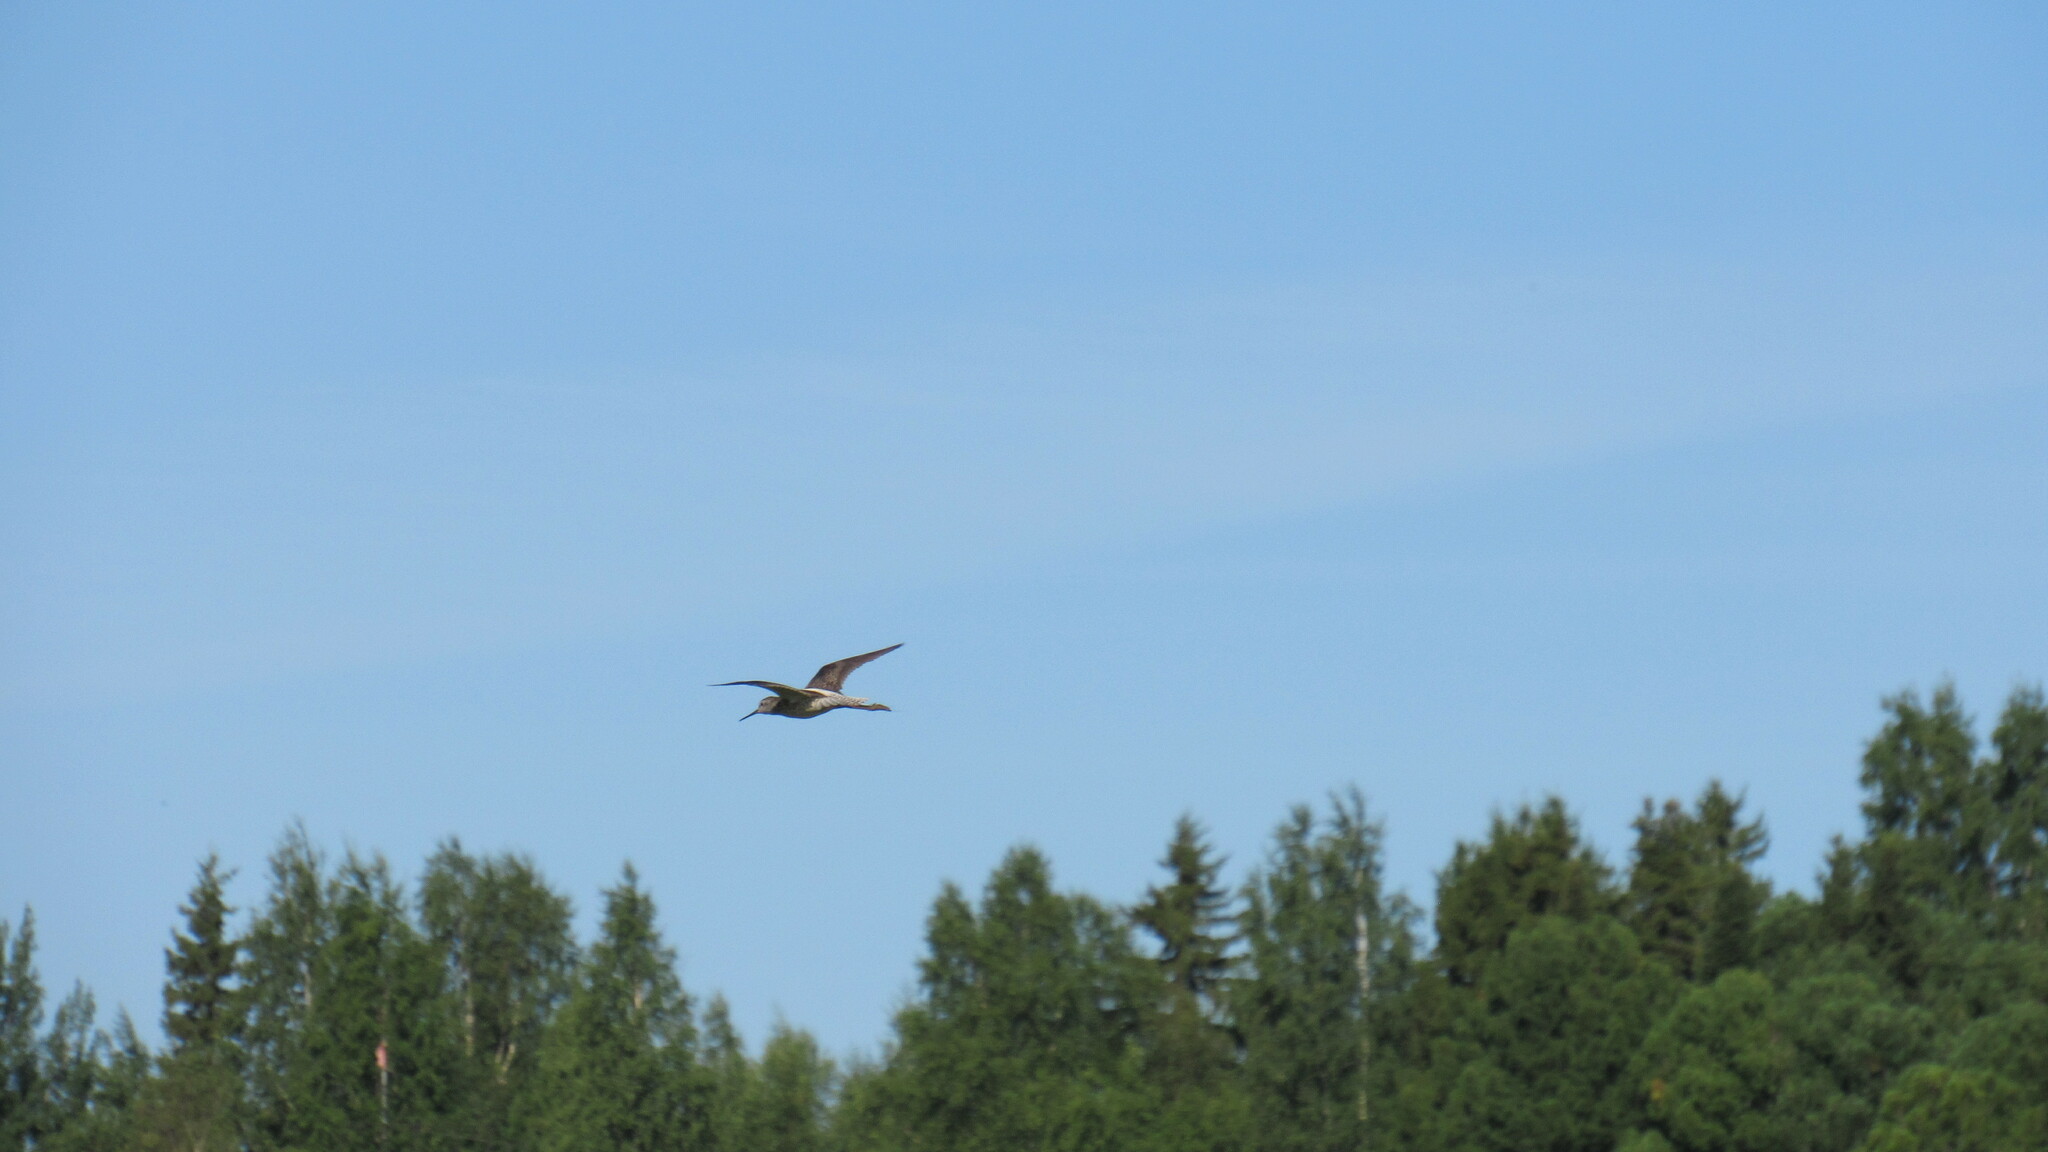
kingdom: Animalia
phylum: Chordata
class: Aves
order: Charadriiformes
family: Scolopacidae
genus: Tringa
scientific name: Tringa stagnatilis
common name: Marsh sandpiper
